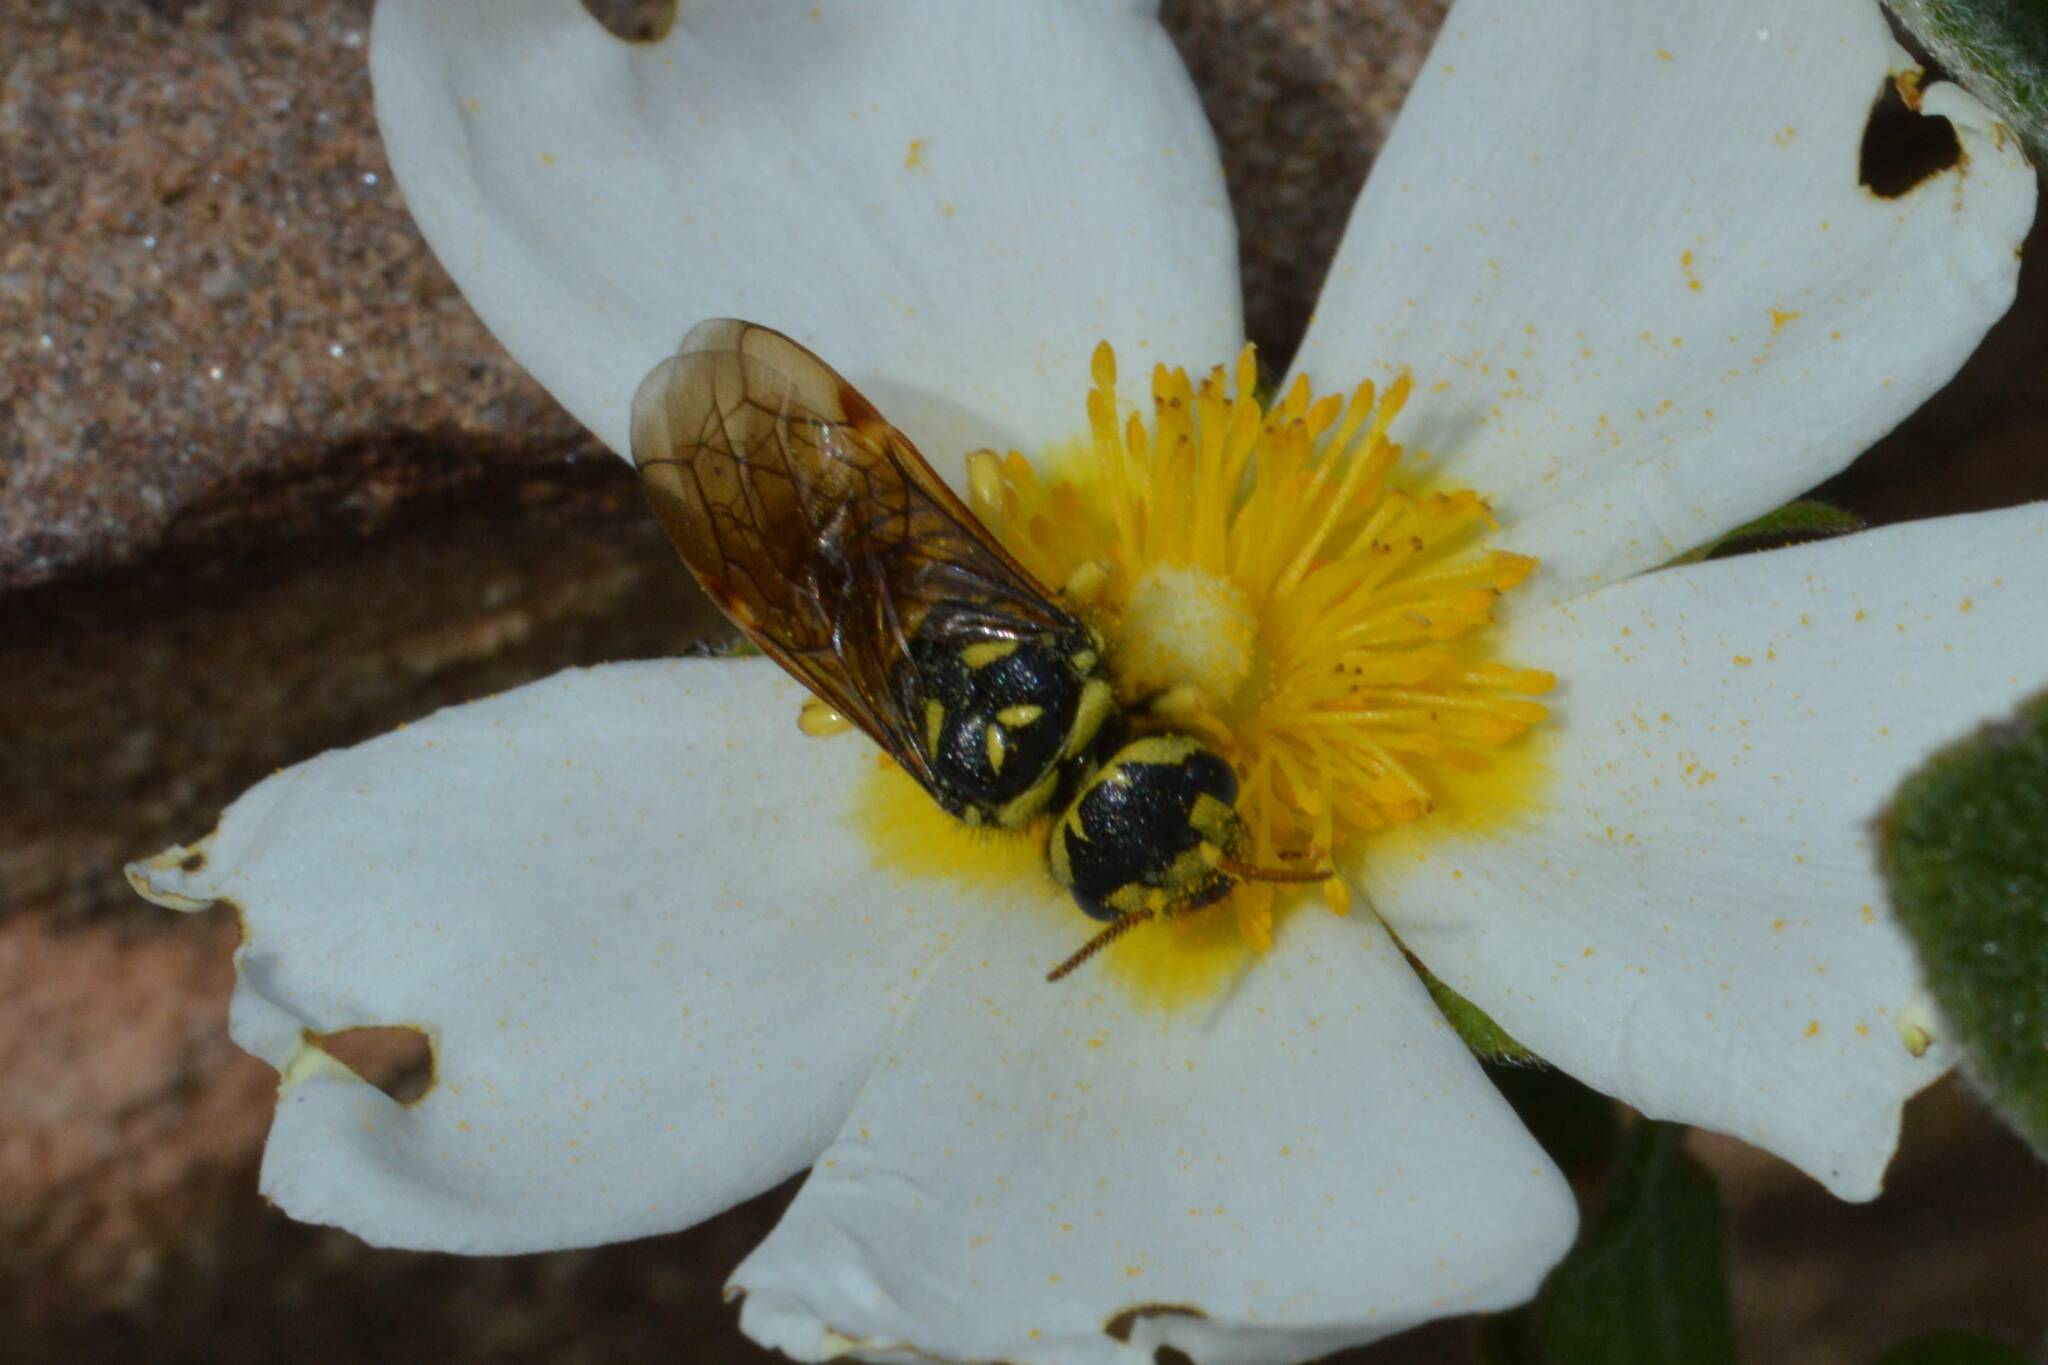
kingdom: Animalia
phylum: Arthropoda
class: Insecta
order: Hymenoptera
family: Megalodontesidae
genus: Megalodontes
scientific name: Megalodontes lacourti
